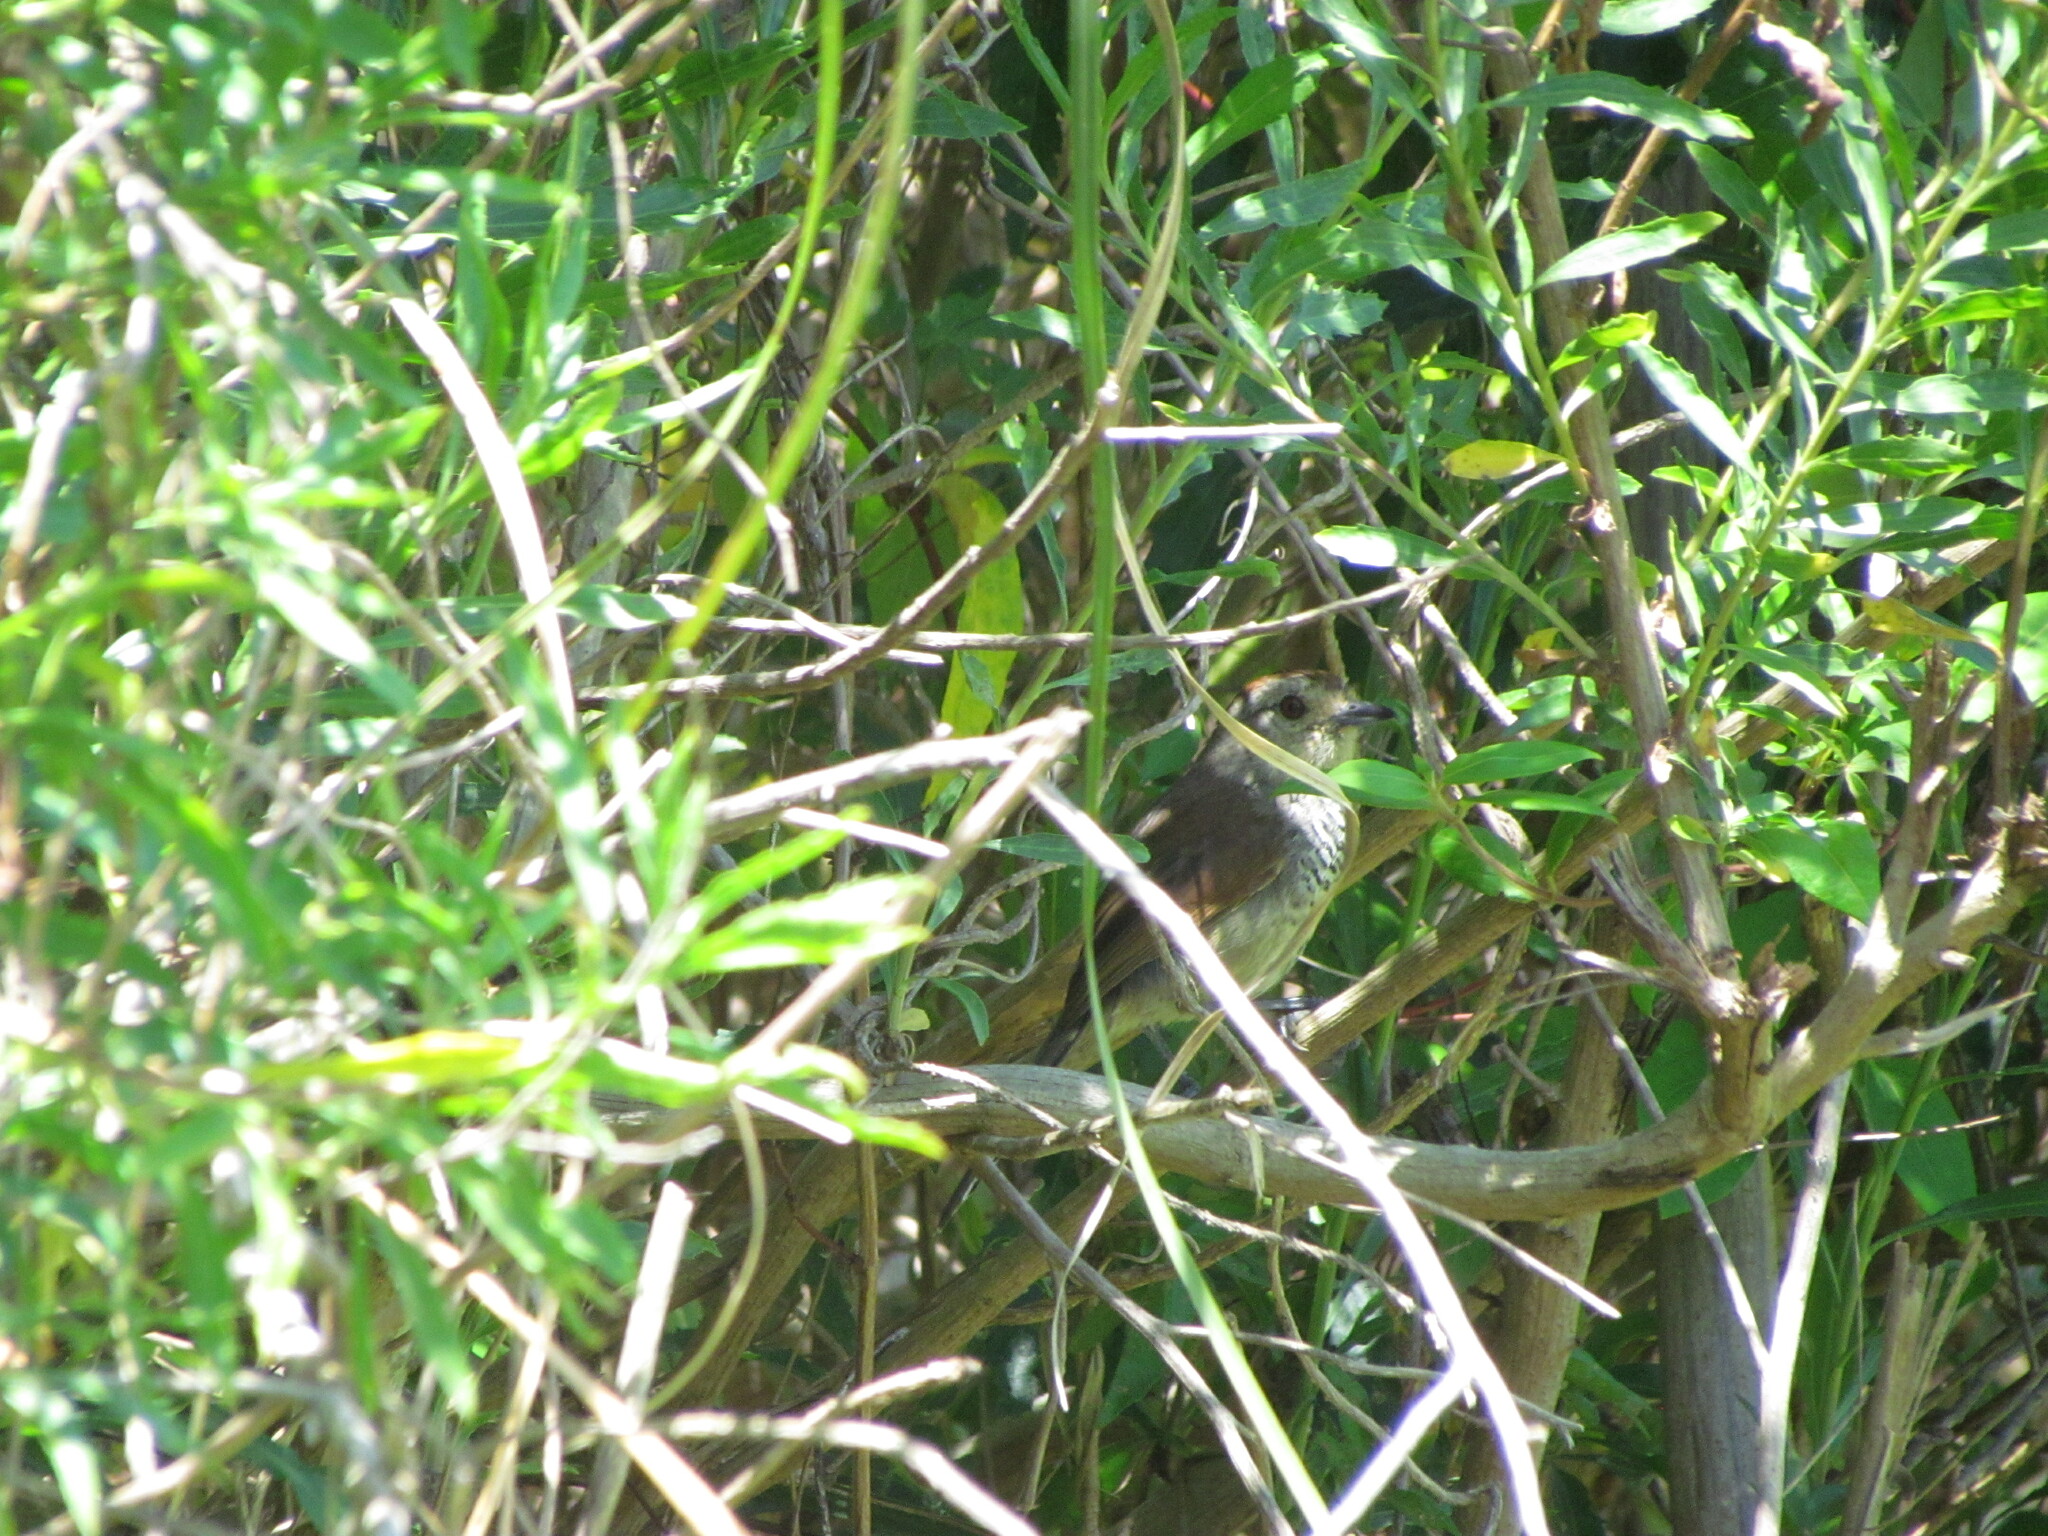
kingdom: Animalia
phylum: Chordata
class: Aves
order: Passeriformes
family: Thamnophilidae
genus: Thamnophilus
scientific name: Thamnophilus ruficapillus
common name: Rufous-capped antshrike
